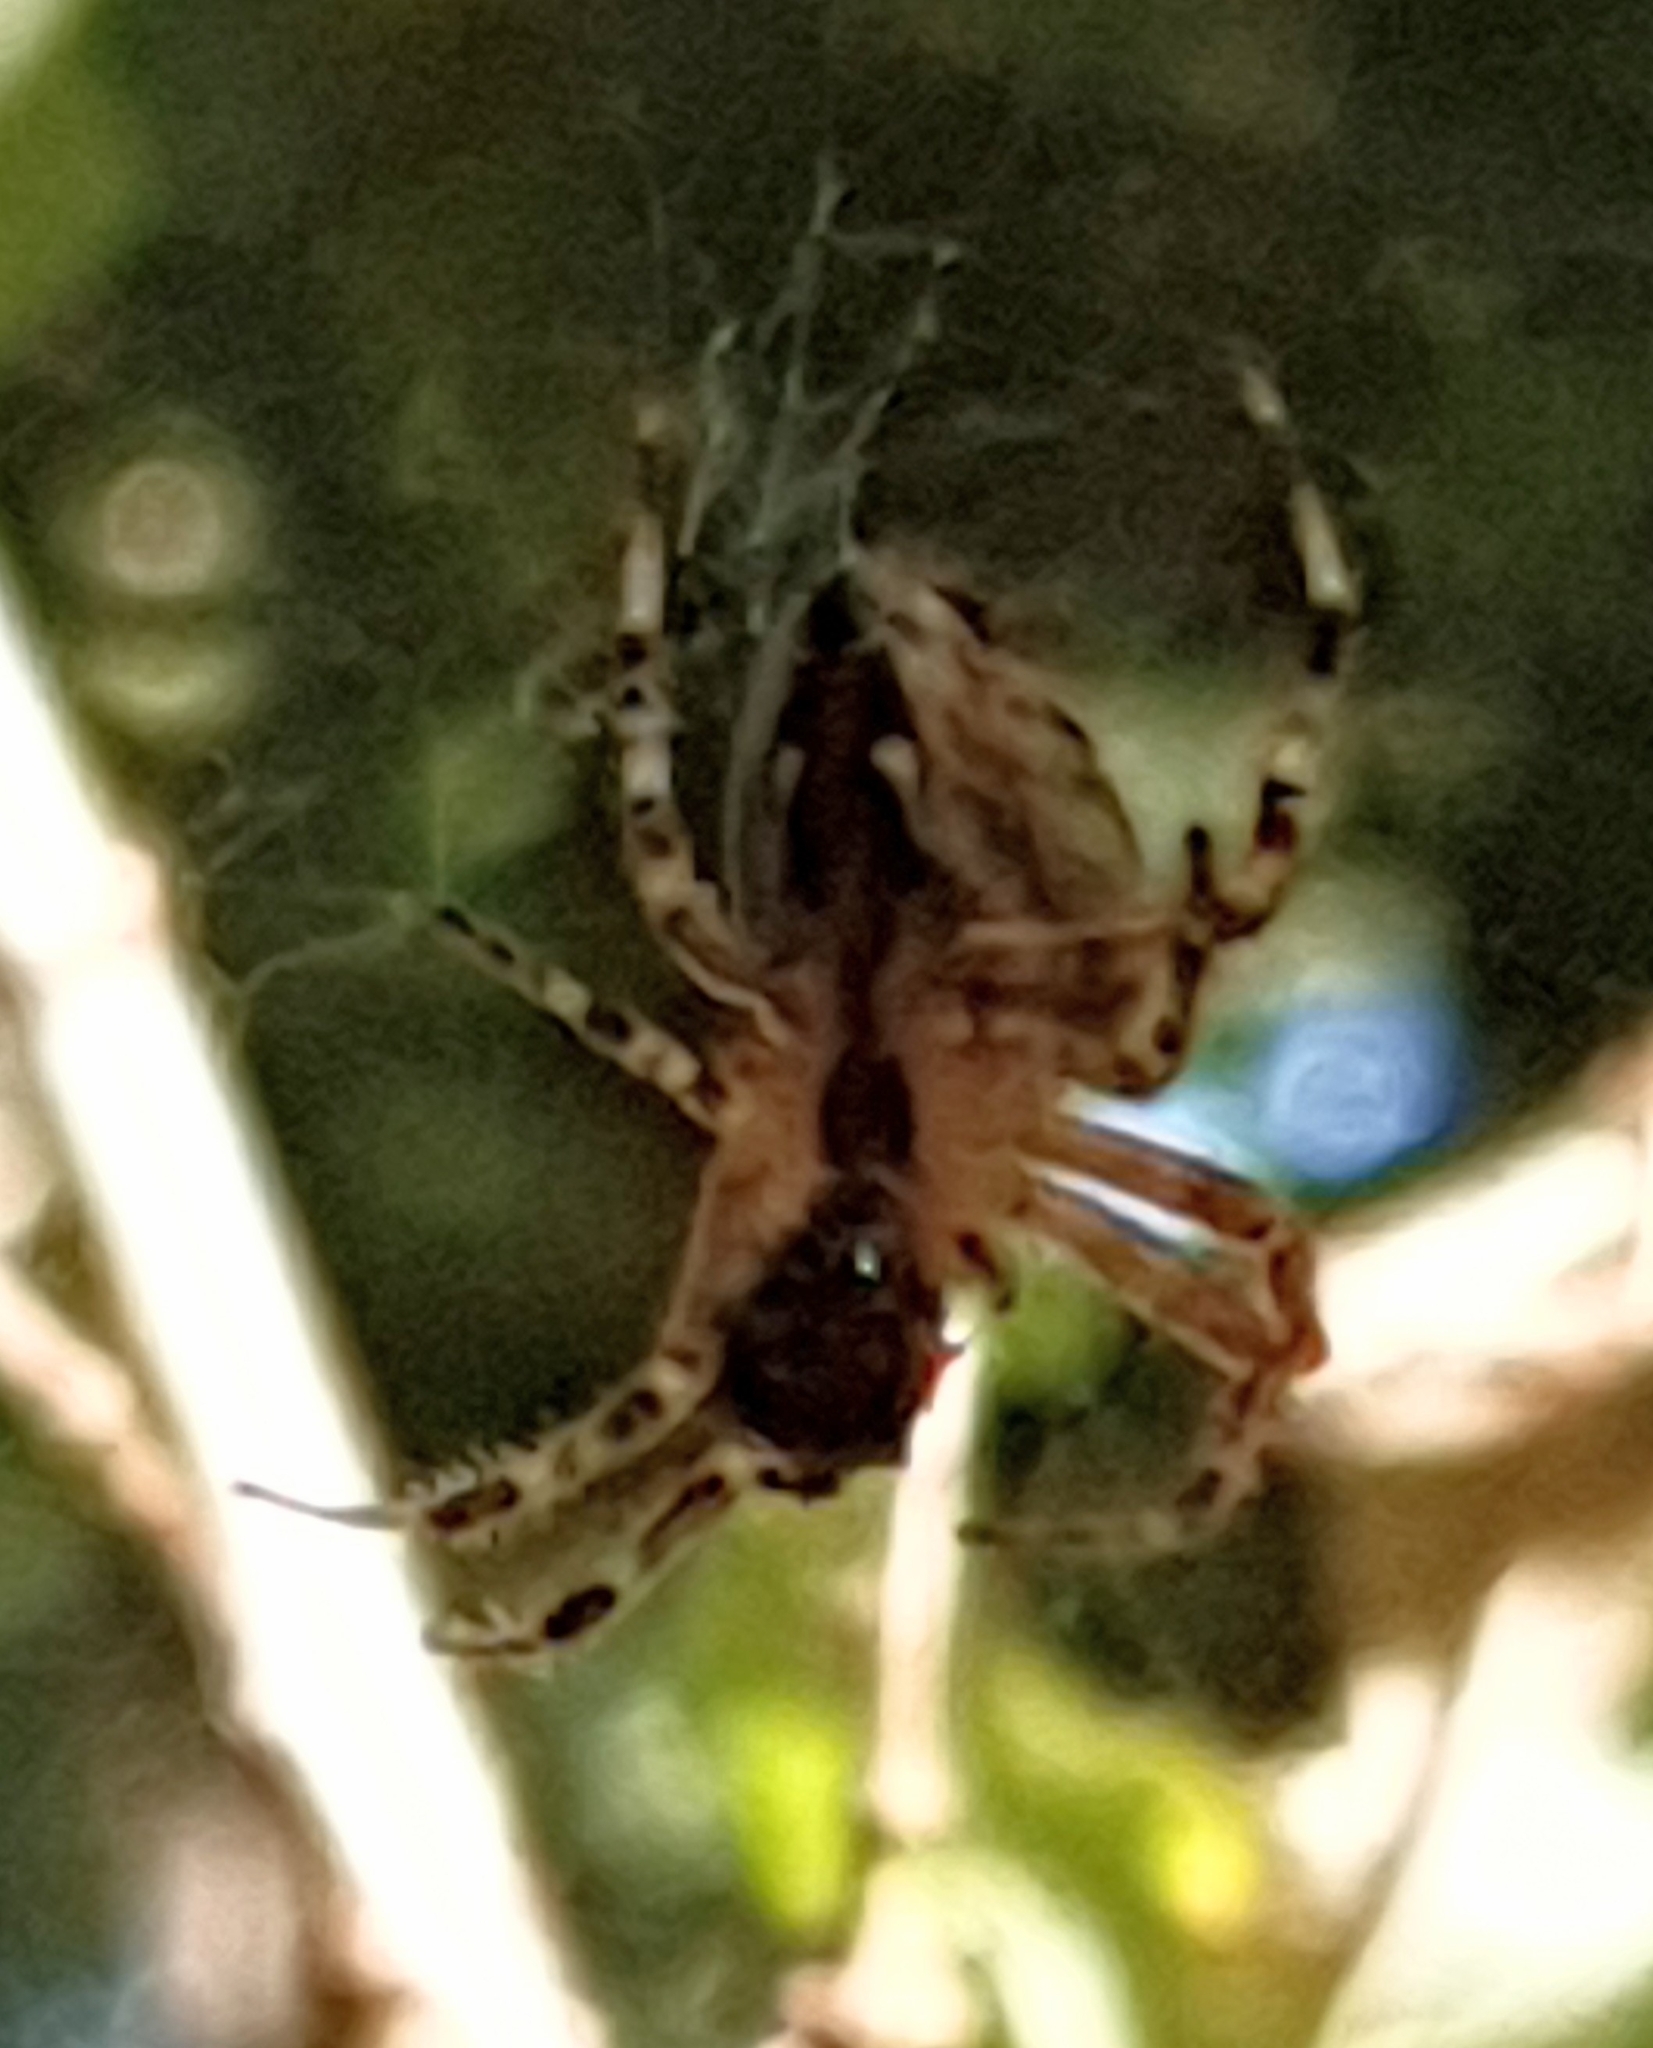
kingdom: Animalia
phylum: Arthropoda
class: Arachnida
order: Araneae
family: Araneidae
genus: Araneus
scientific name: Araneus diadematus
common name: Cross orbweaver
